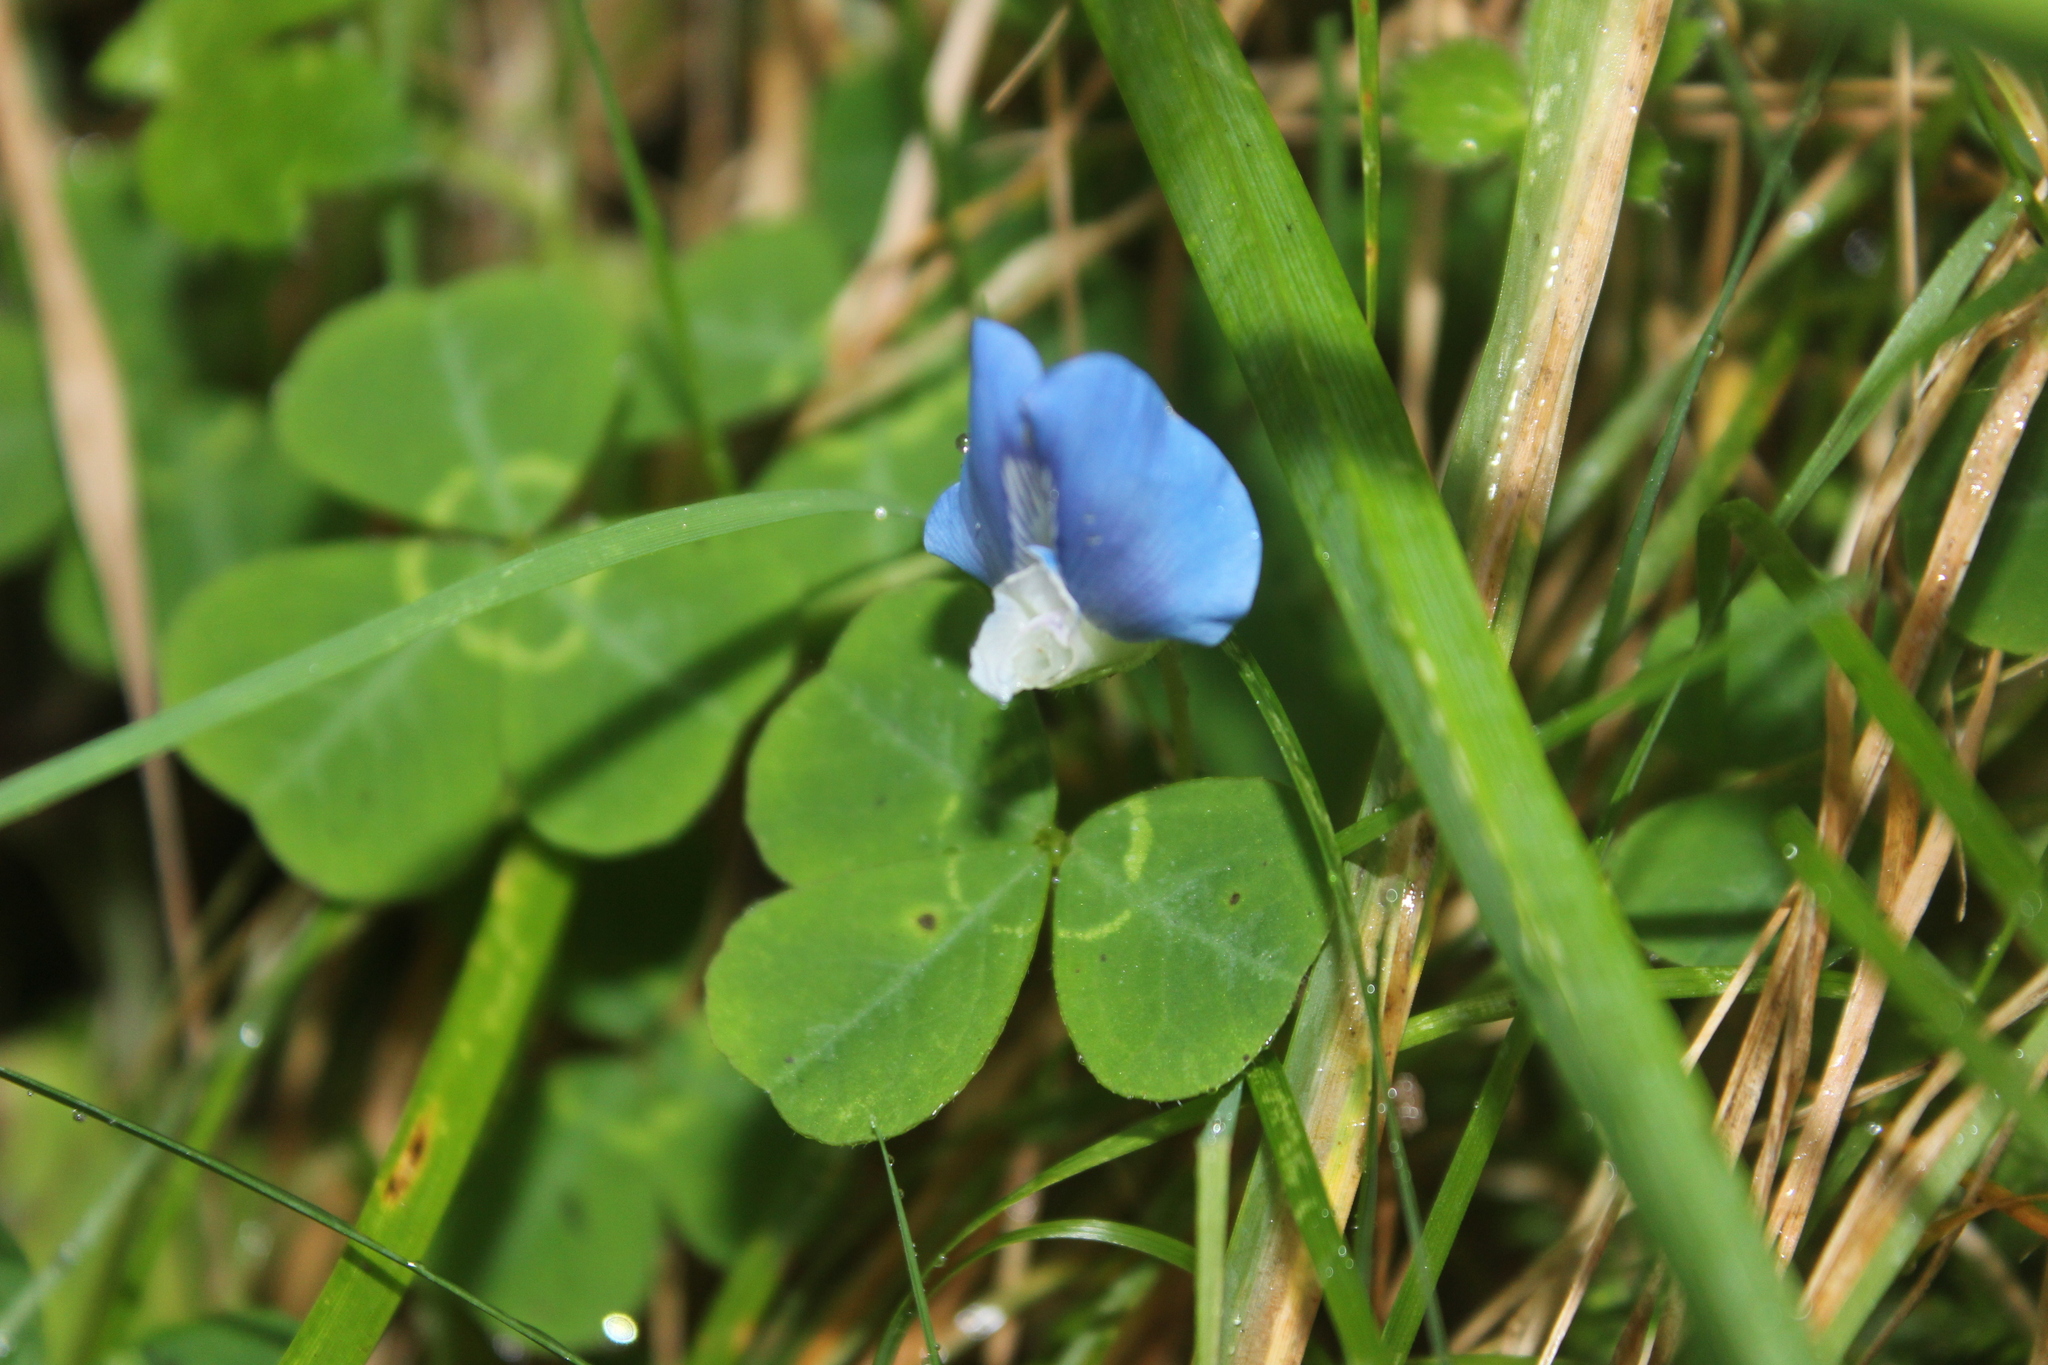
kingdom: Plantae
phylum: Tracheophyta
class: Magnoliopsida
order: Fabales
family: Fabaceae
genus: Parochetus
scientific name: Parochetus communis
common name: Blue oxalis
